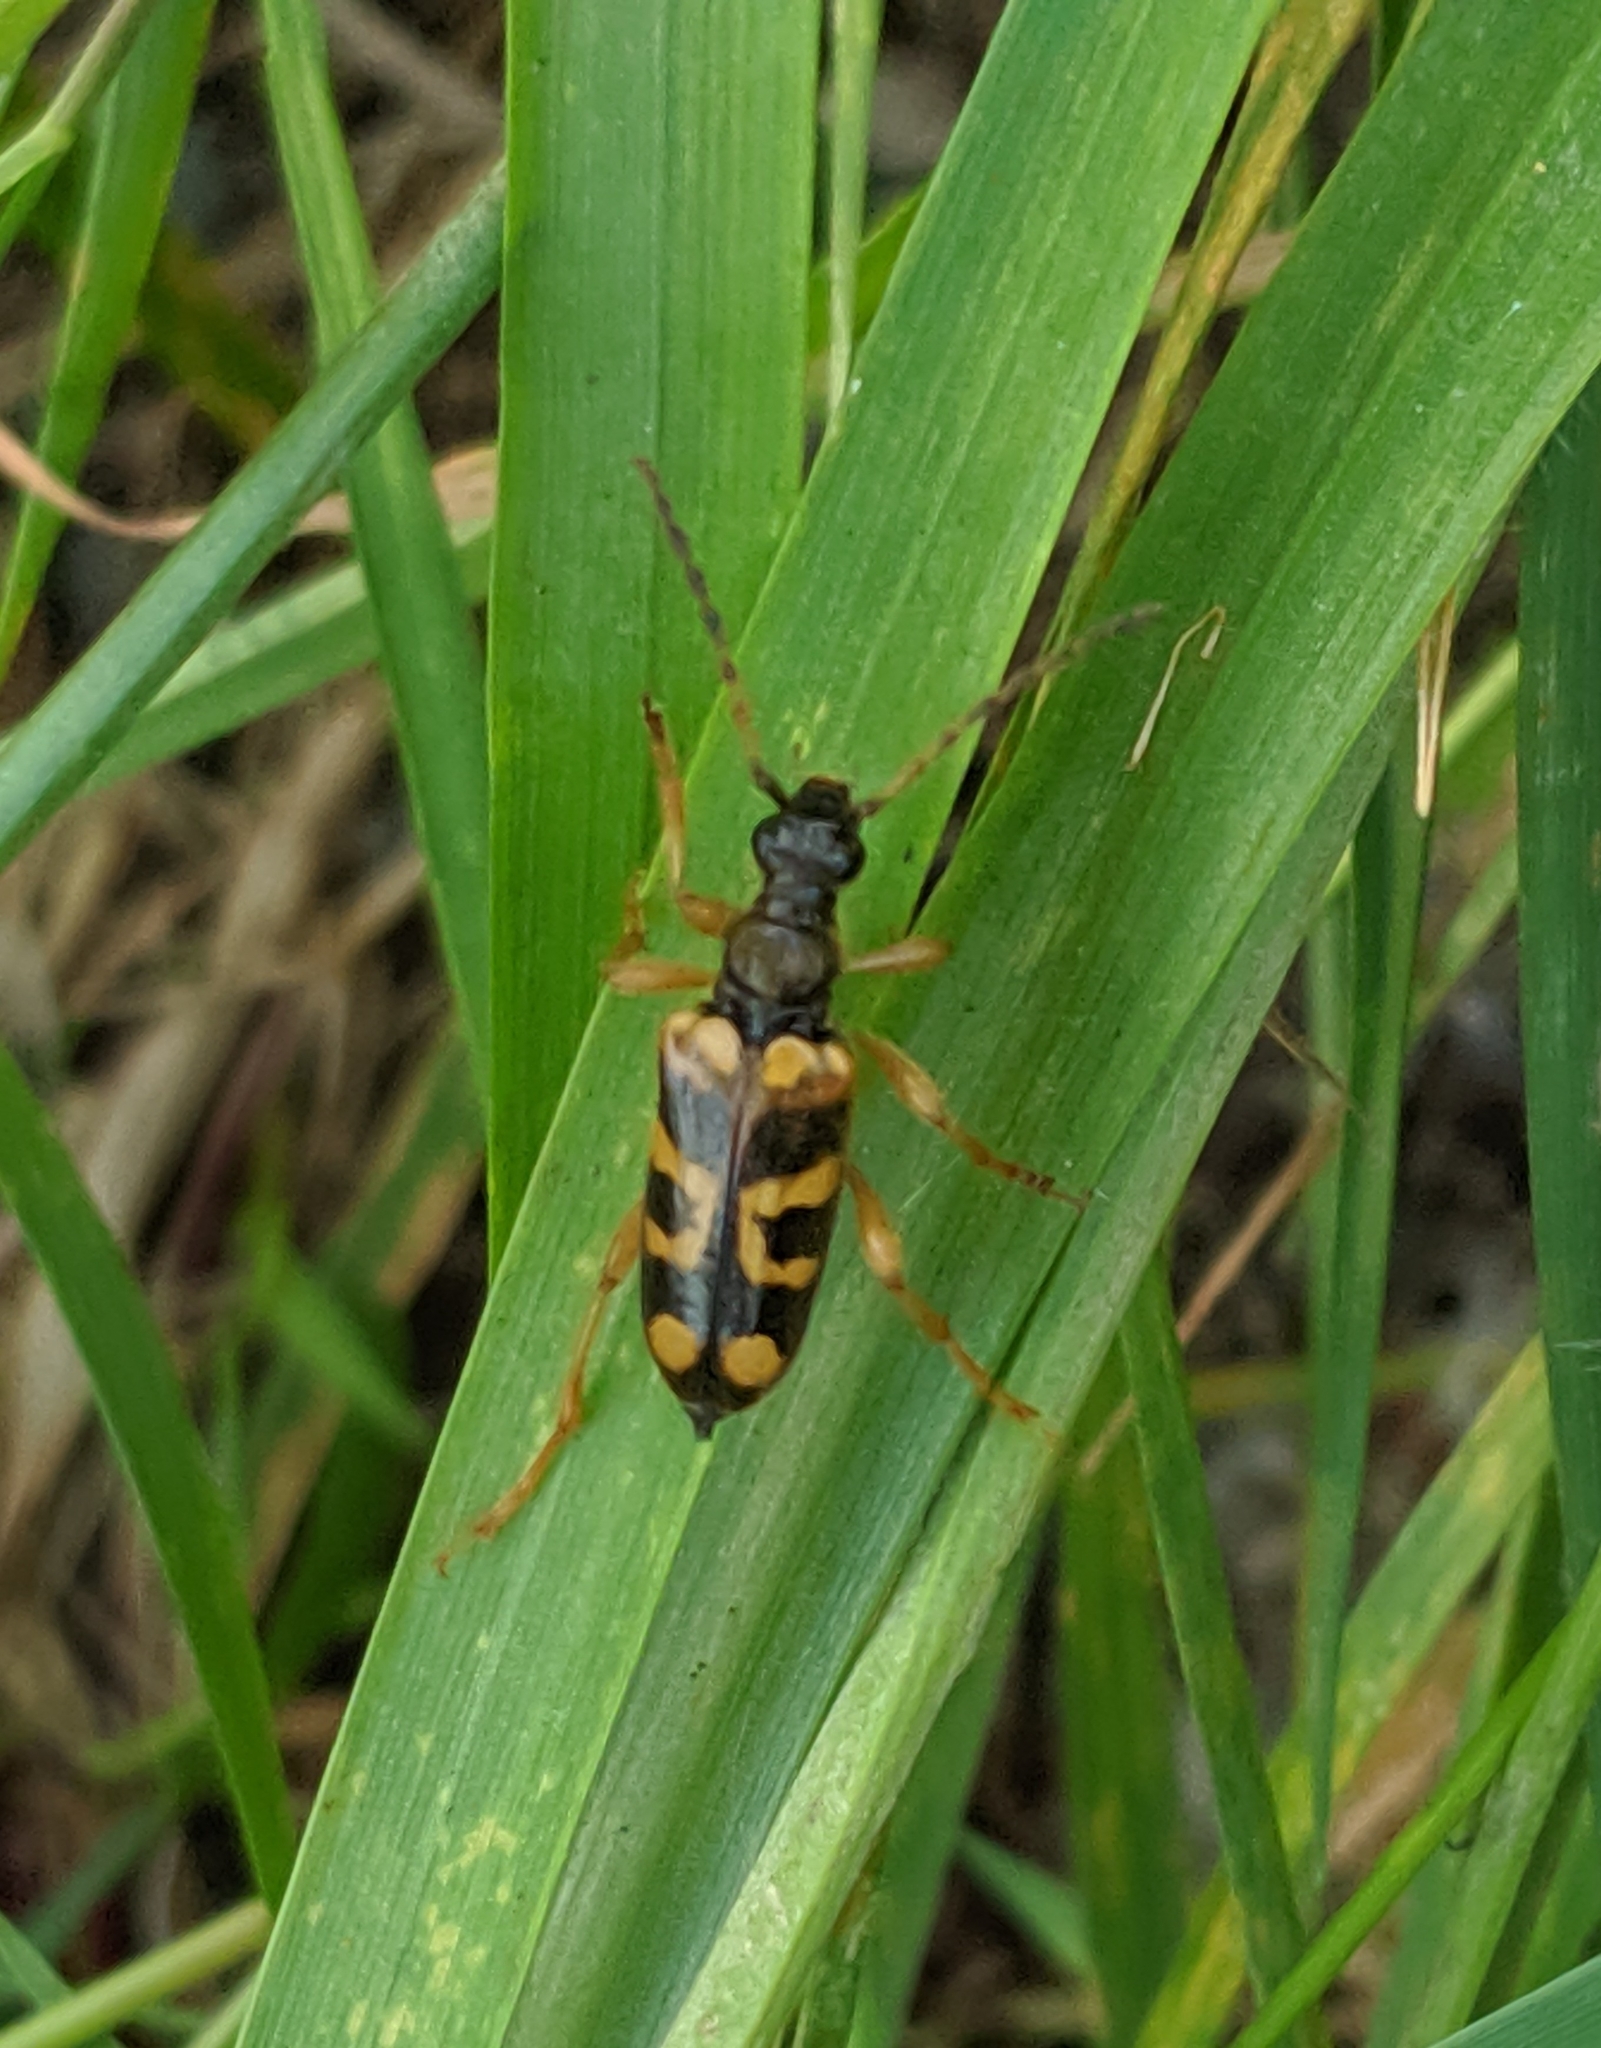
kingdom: Animalia
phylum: Arthropoda
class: Insecta
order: Coleoptera
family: Cerambycidae
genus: Xestoleptura
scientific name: Xestoleptura crassipes
